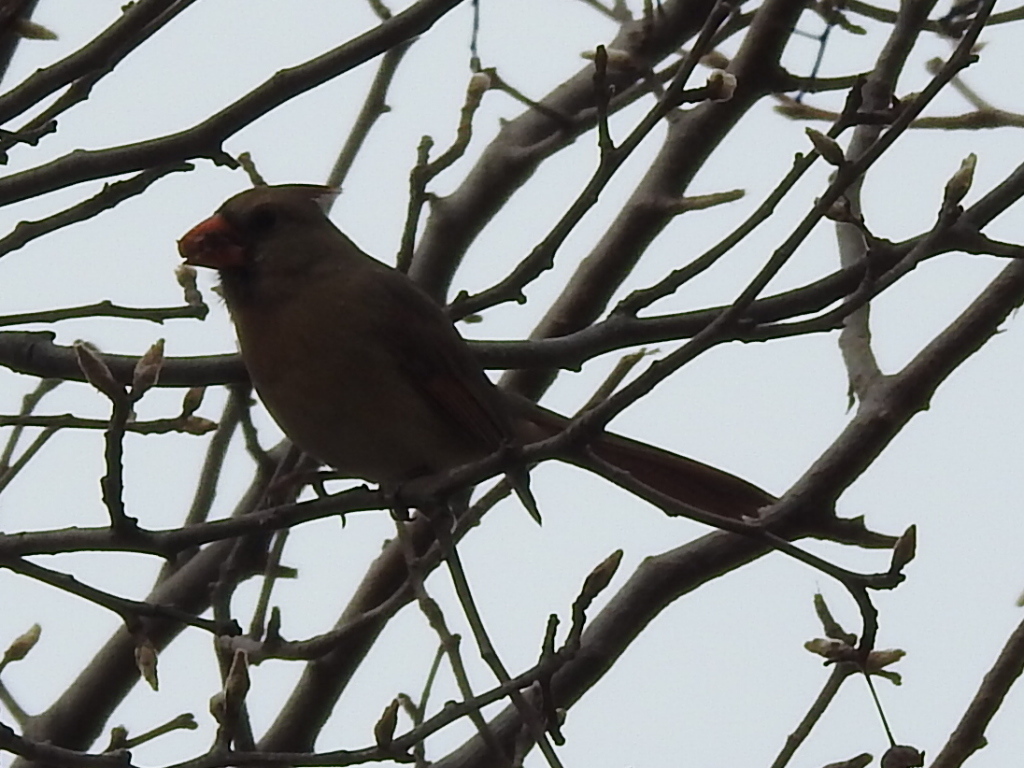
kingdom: Animalia
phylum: Chordata
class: Aves
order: Passeriformes
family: Cardinalidae
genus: Cardinalis
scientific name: Cardinalis cardinalis
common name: Northern cardinal
